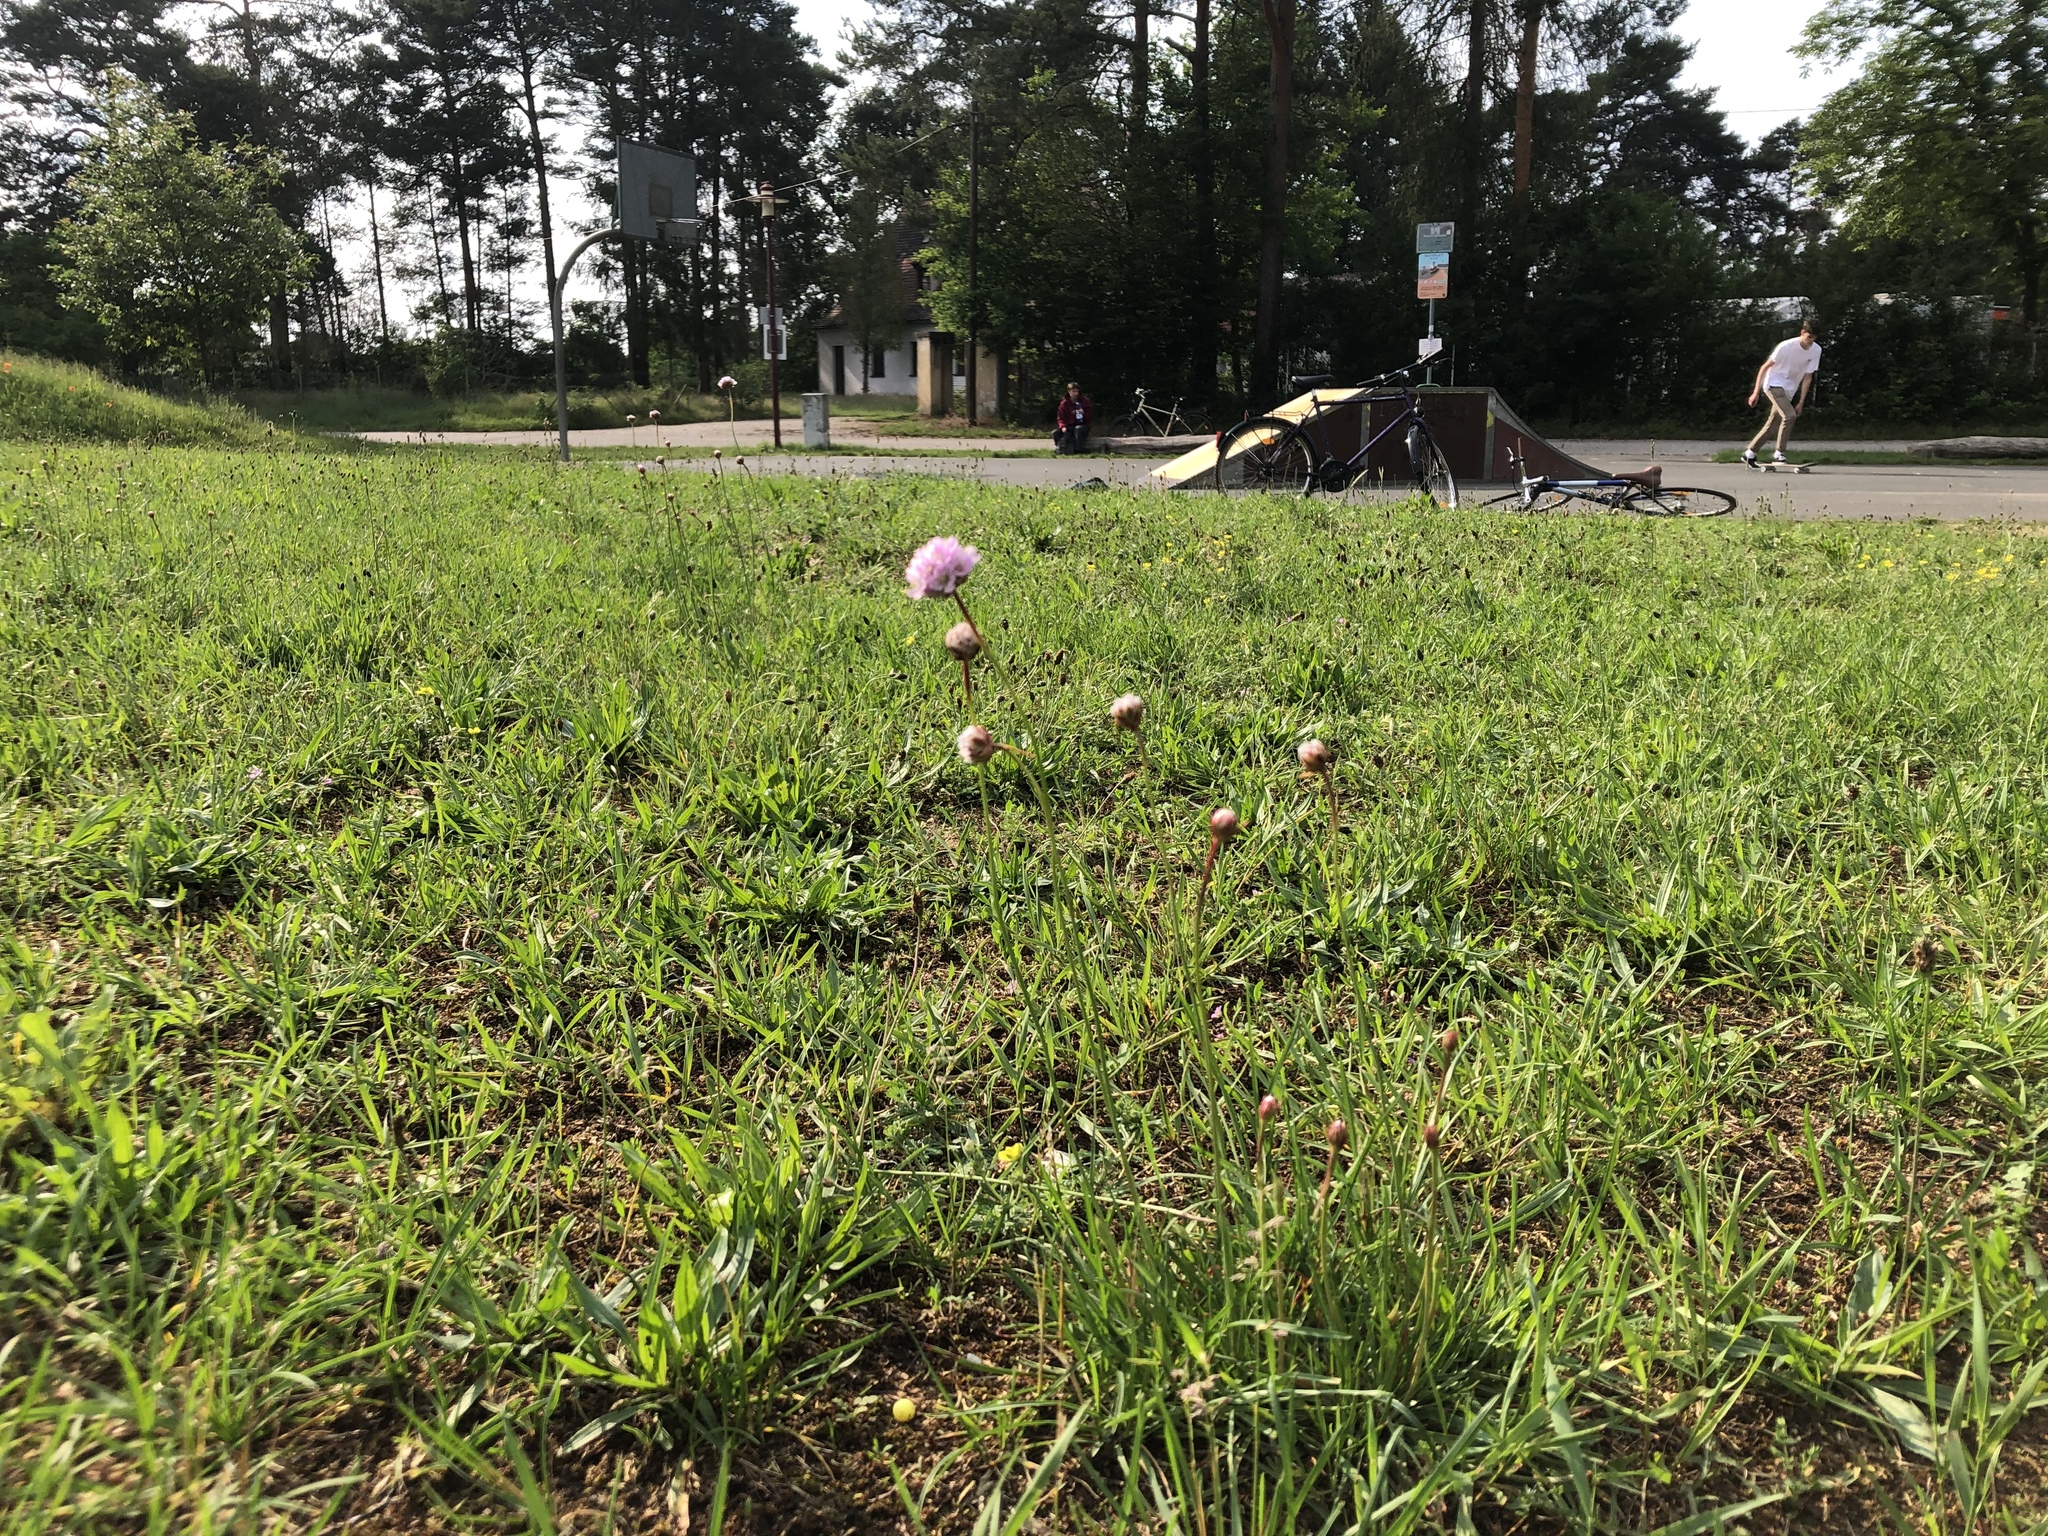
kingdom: Plantae
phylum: Tracheophyta
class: Magnoliopsida
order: Caryophyllales
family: Plumbaginaceae
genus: Armeria
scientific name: Armeria maritima
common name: Thrift
